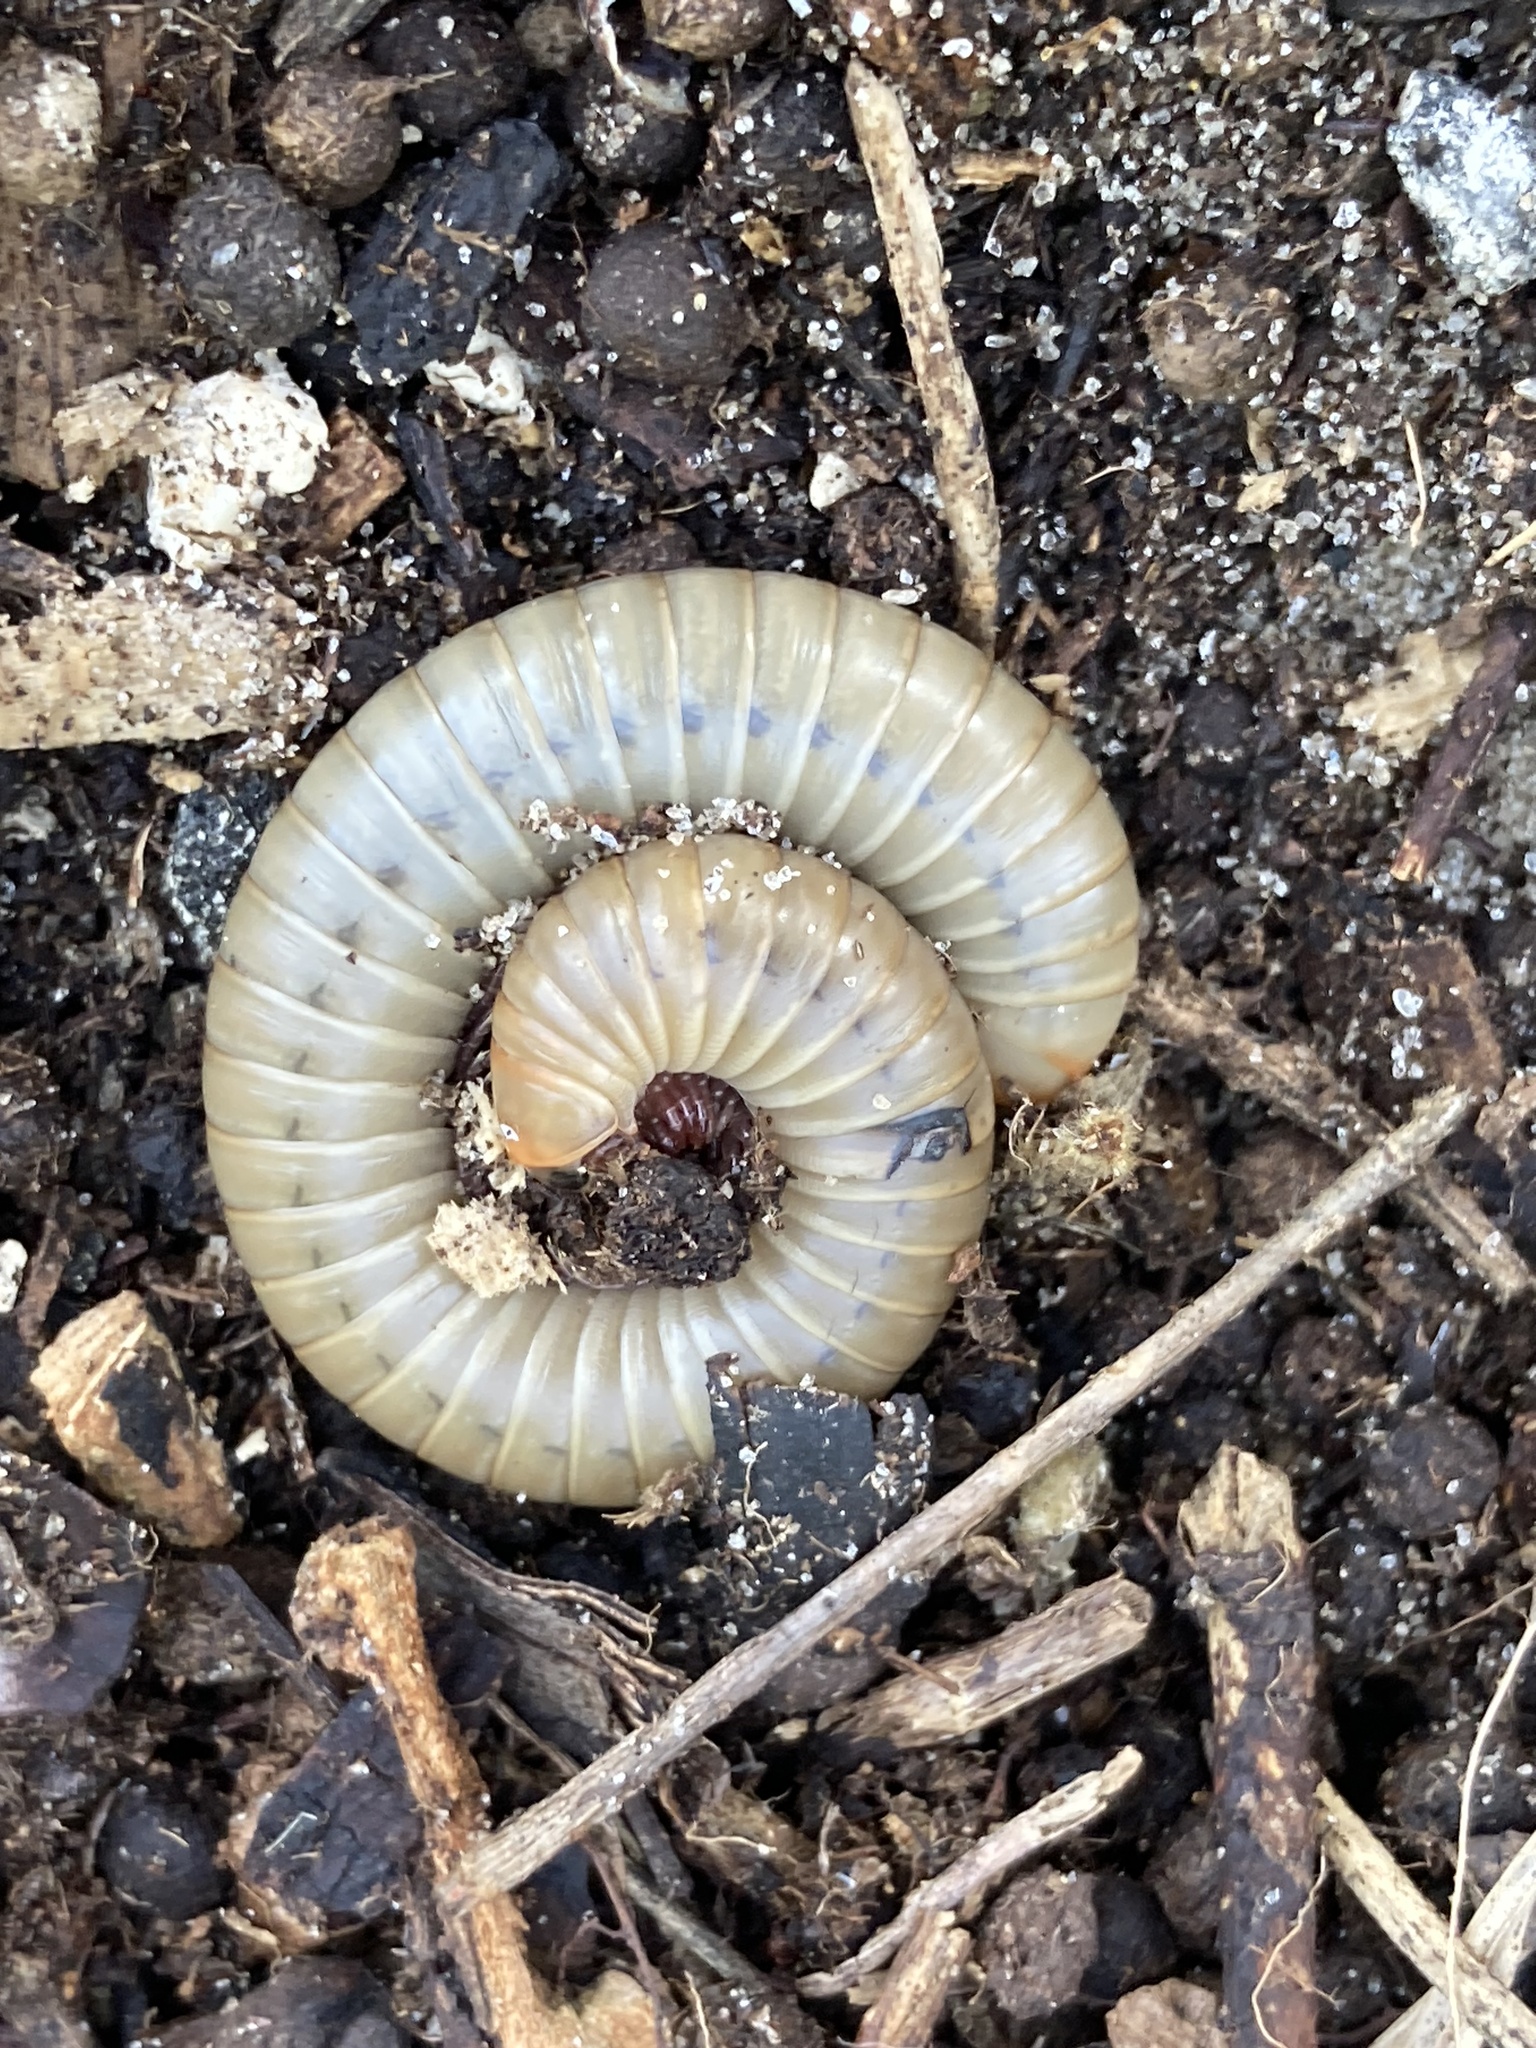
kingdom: Animalia
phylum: Arthropoda
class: Diplopoda
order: Spirobolida
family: Spirobolidae
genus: Narceus
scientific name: Narceus gordanus
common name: Grayish-green millipede
